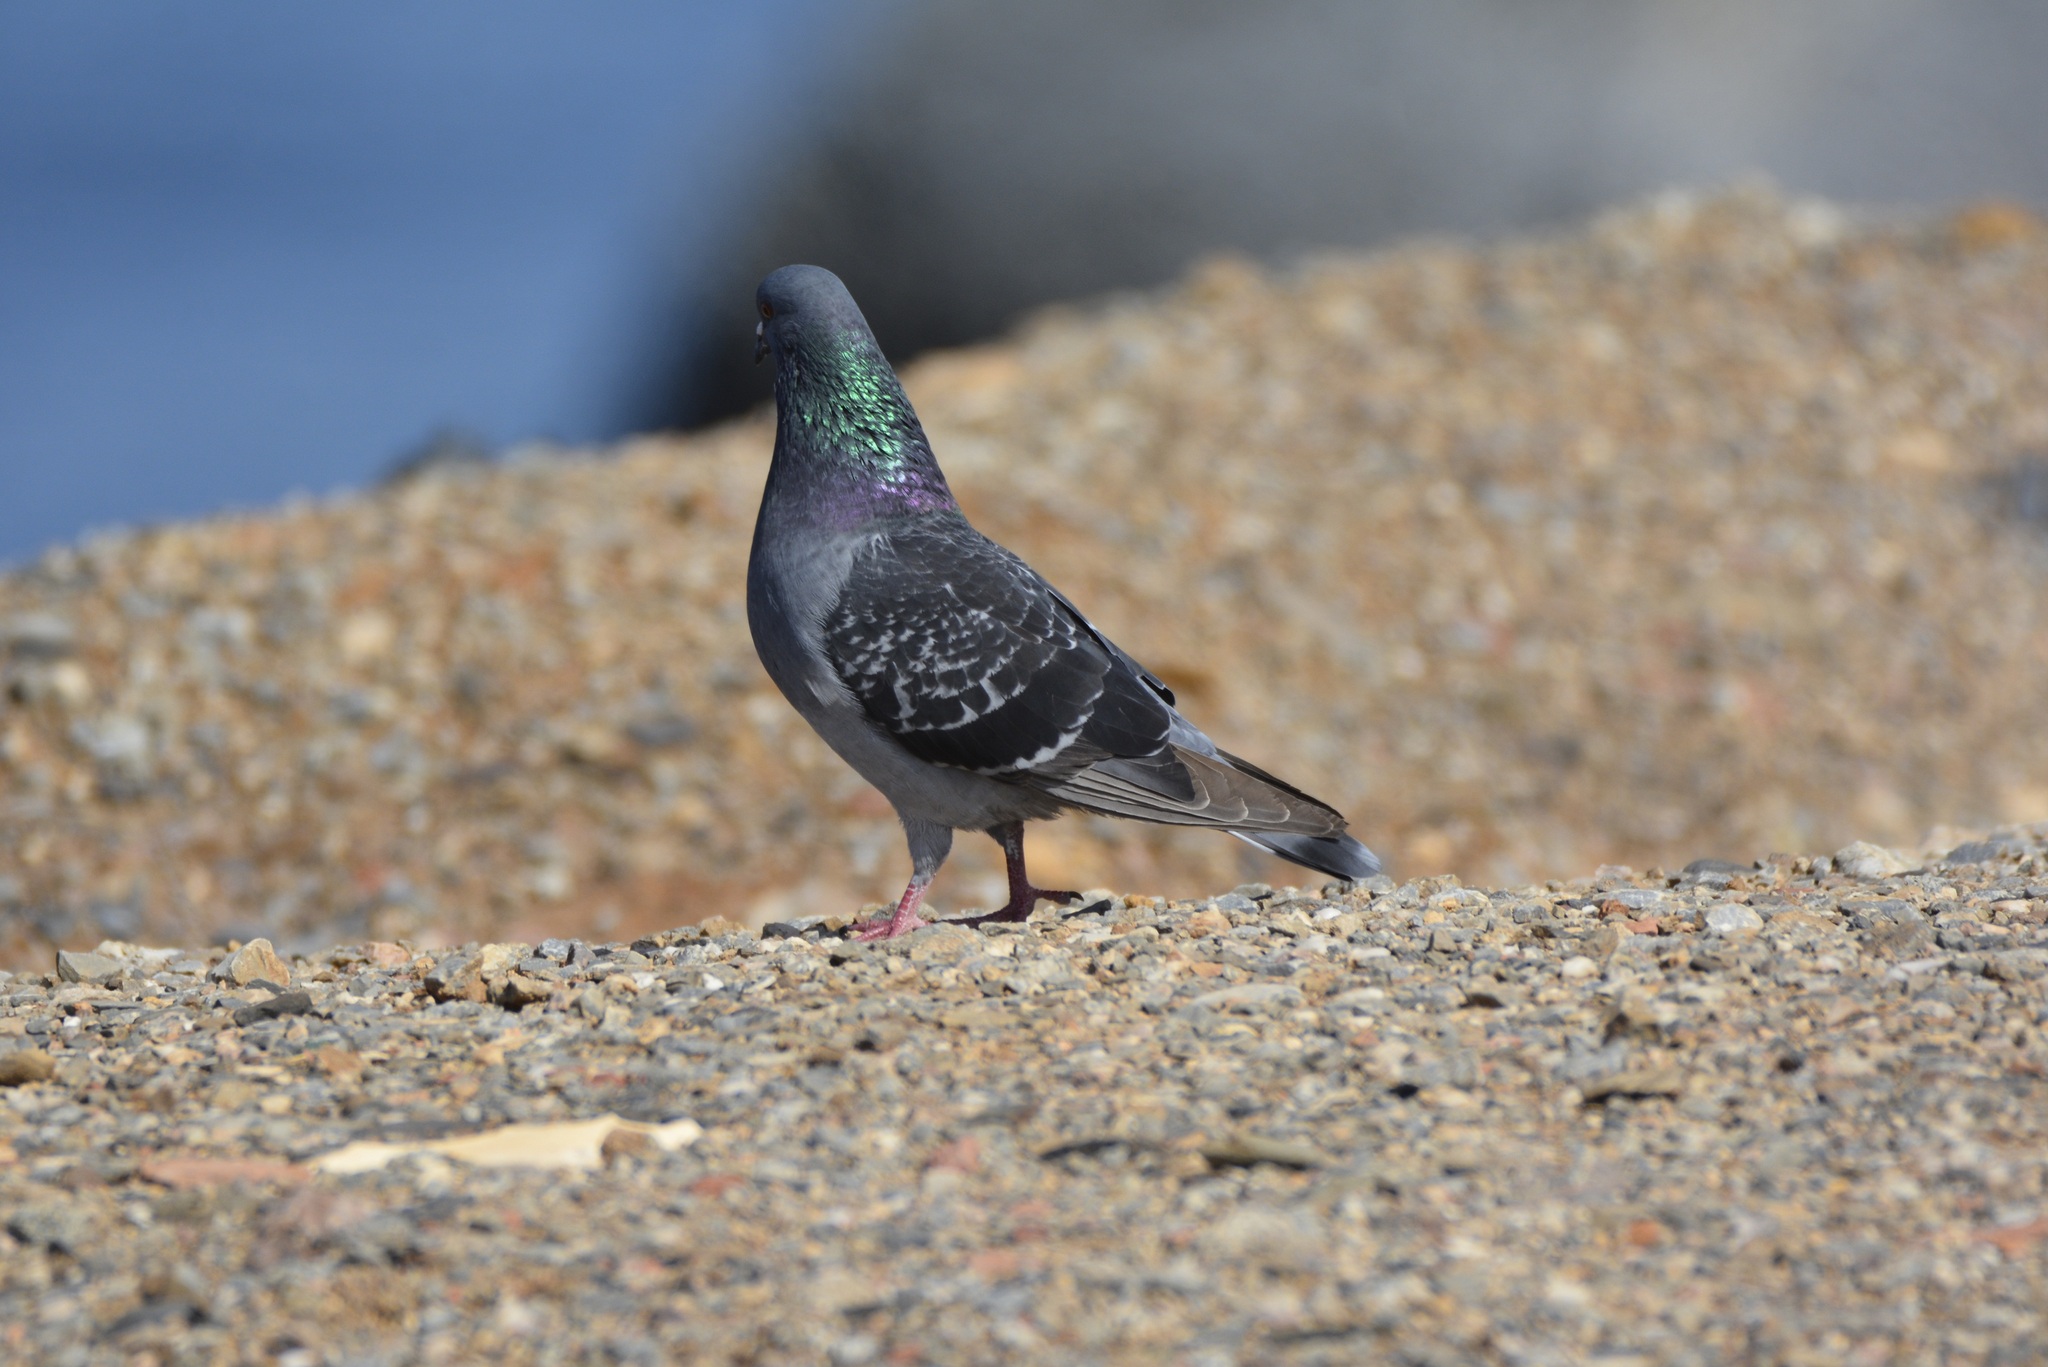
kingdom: Animalia
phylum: Chordata
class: Aves
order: Columbiformes
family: Columbidae
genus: Columba
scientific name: Columba livia
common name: Rock pigeon
